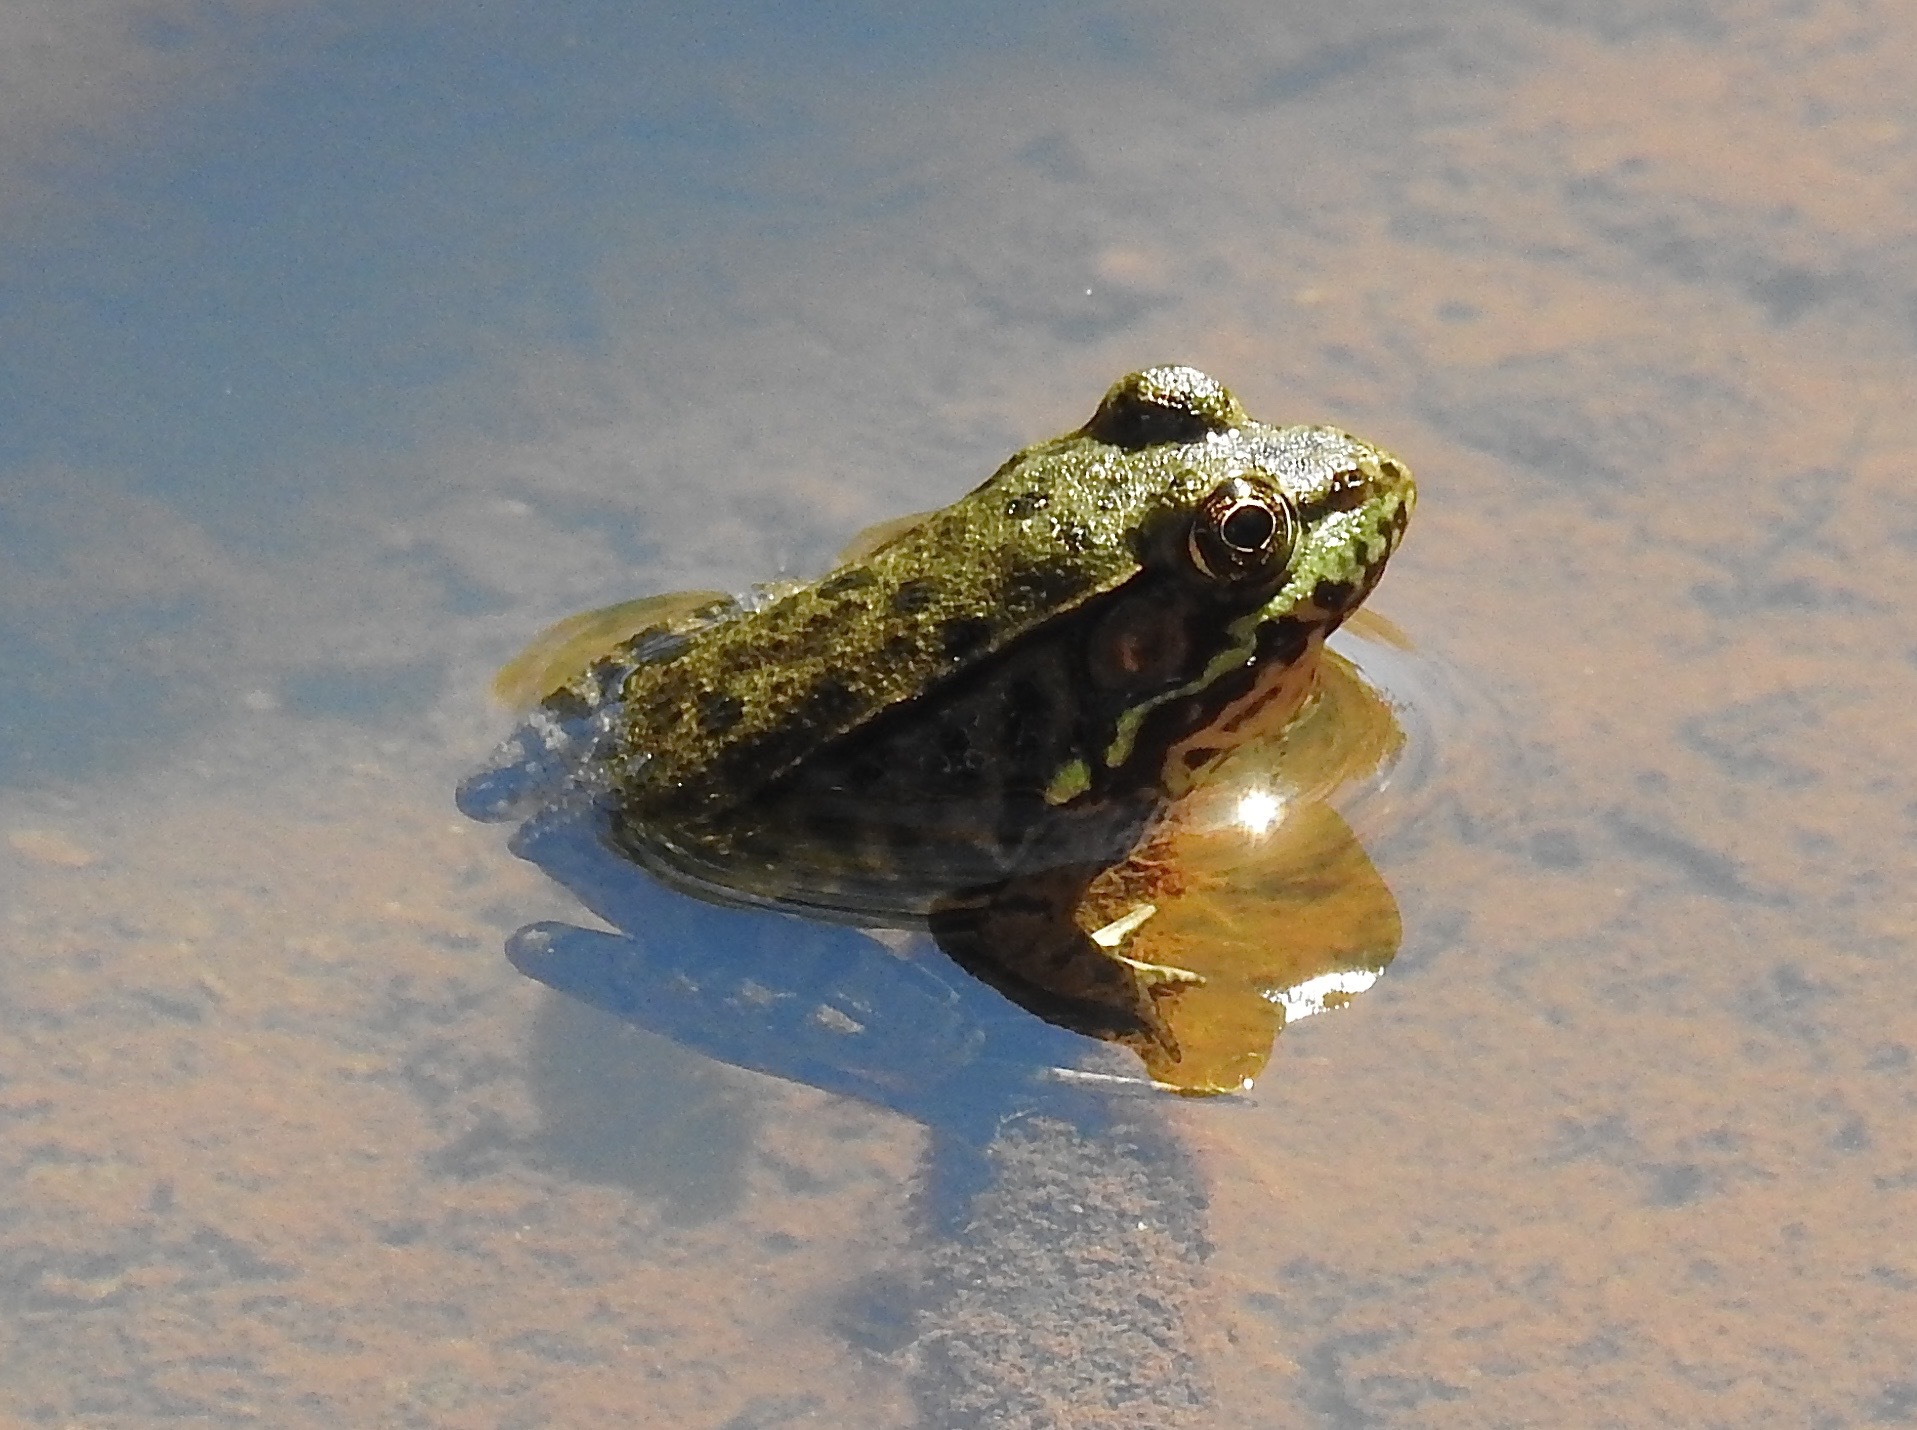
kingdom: Animalia
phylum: Chordata
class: Amphibia
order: Anura
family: Ranidae
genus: Lithobates
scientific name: Lithobates clamitans
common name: Green frog
